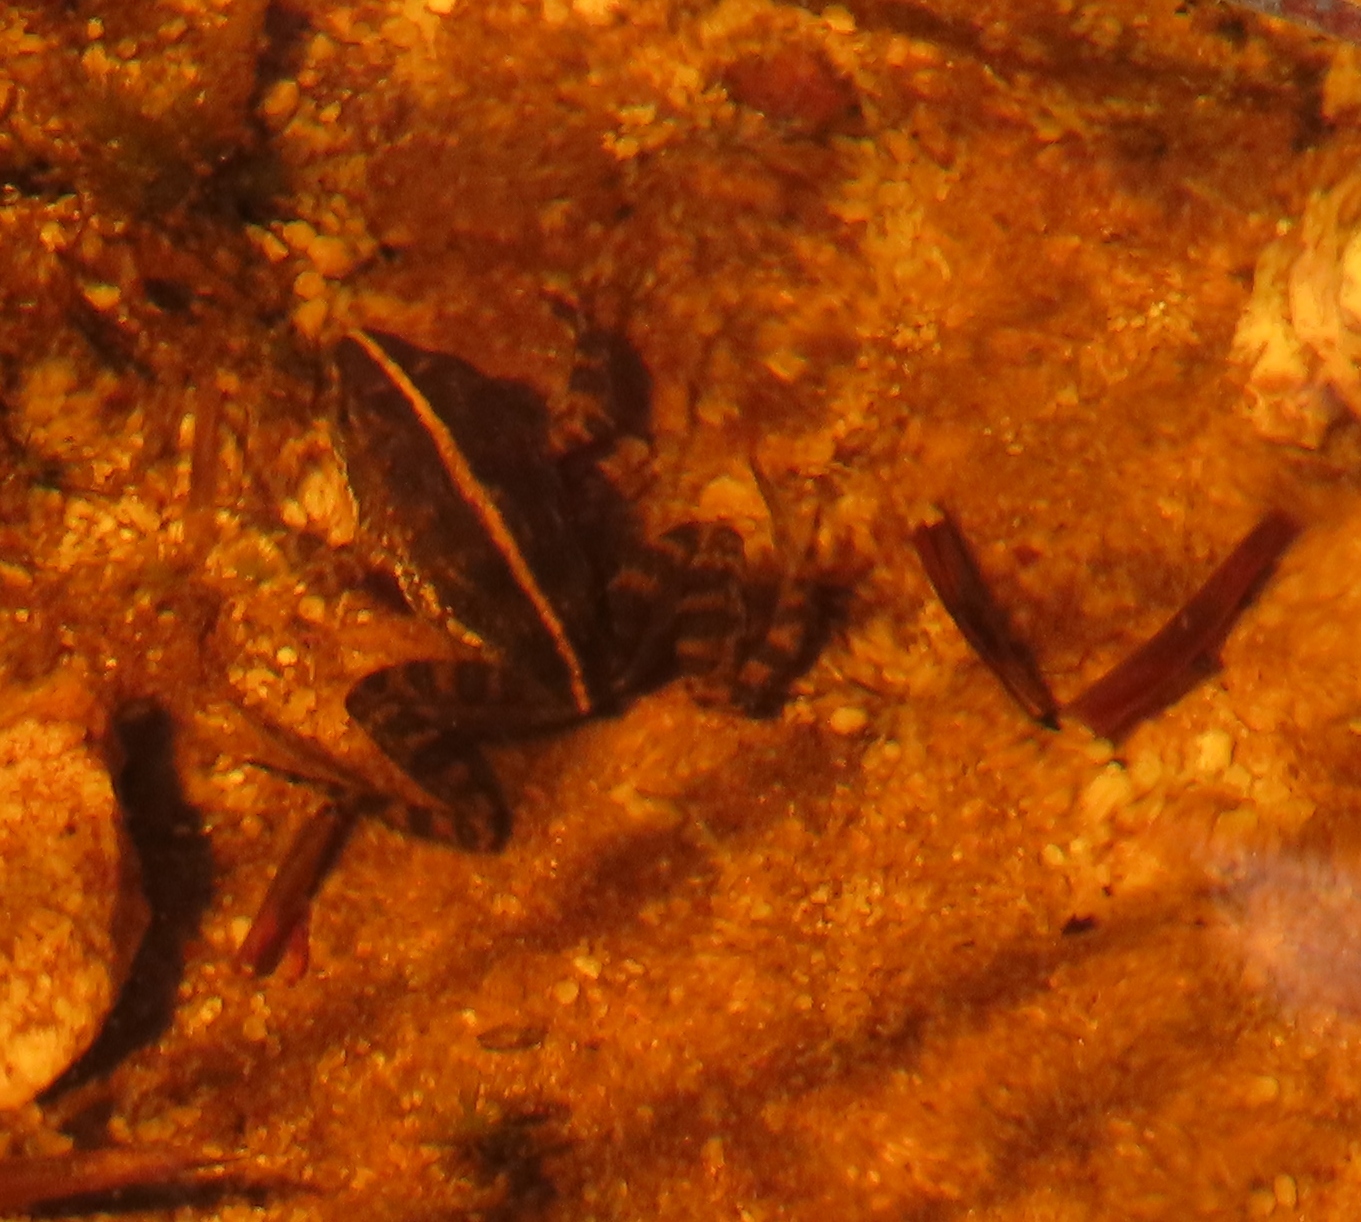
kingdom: Animalia
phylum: Chordata
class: Amphibia
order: Anura
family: Pyxicephalidae
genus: Strongylopus
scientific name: Strongylopus grayii
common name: Gray's stream frog
